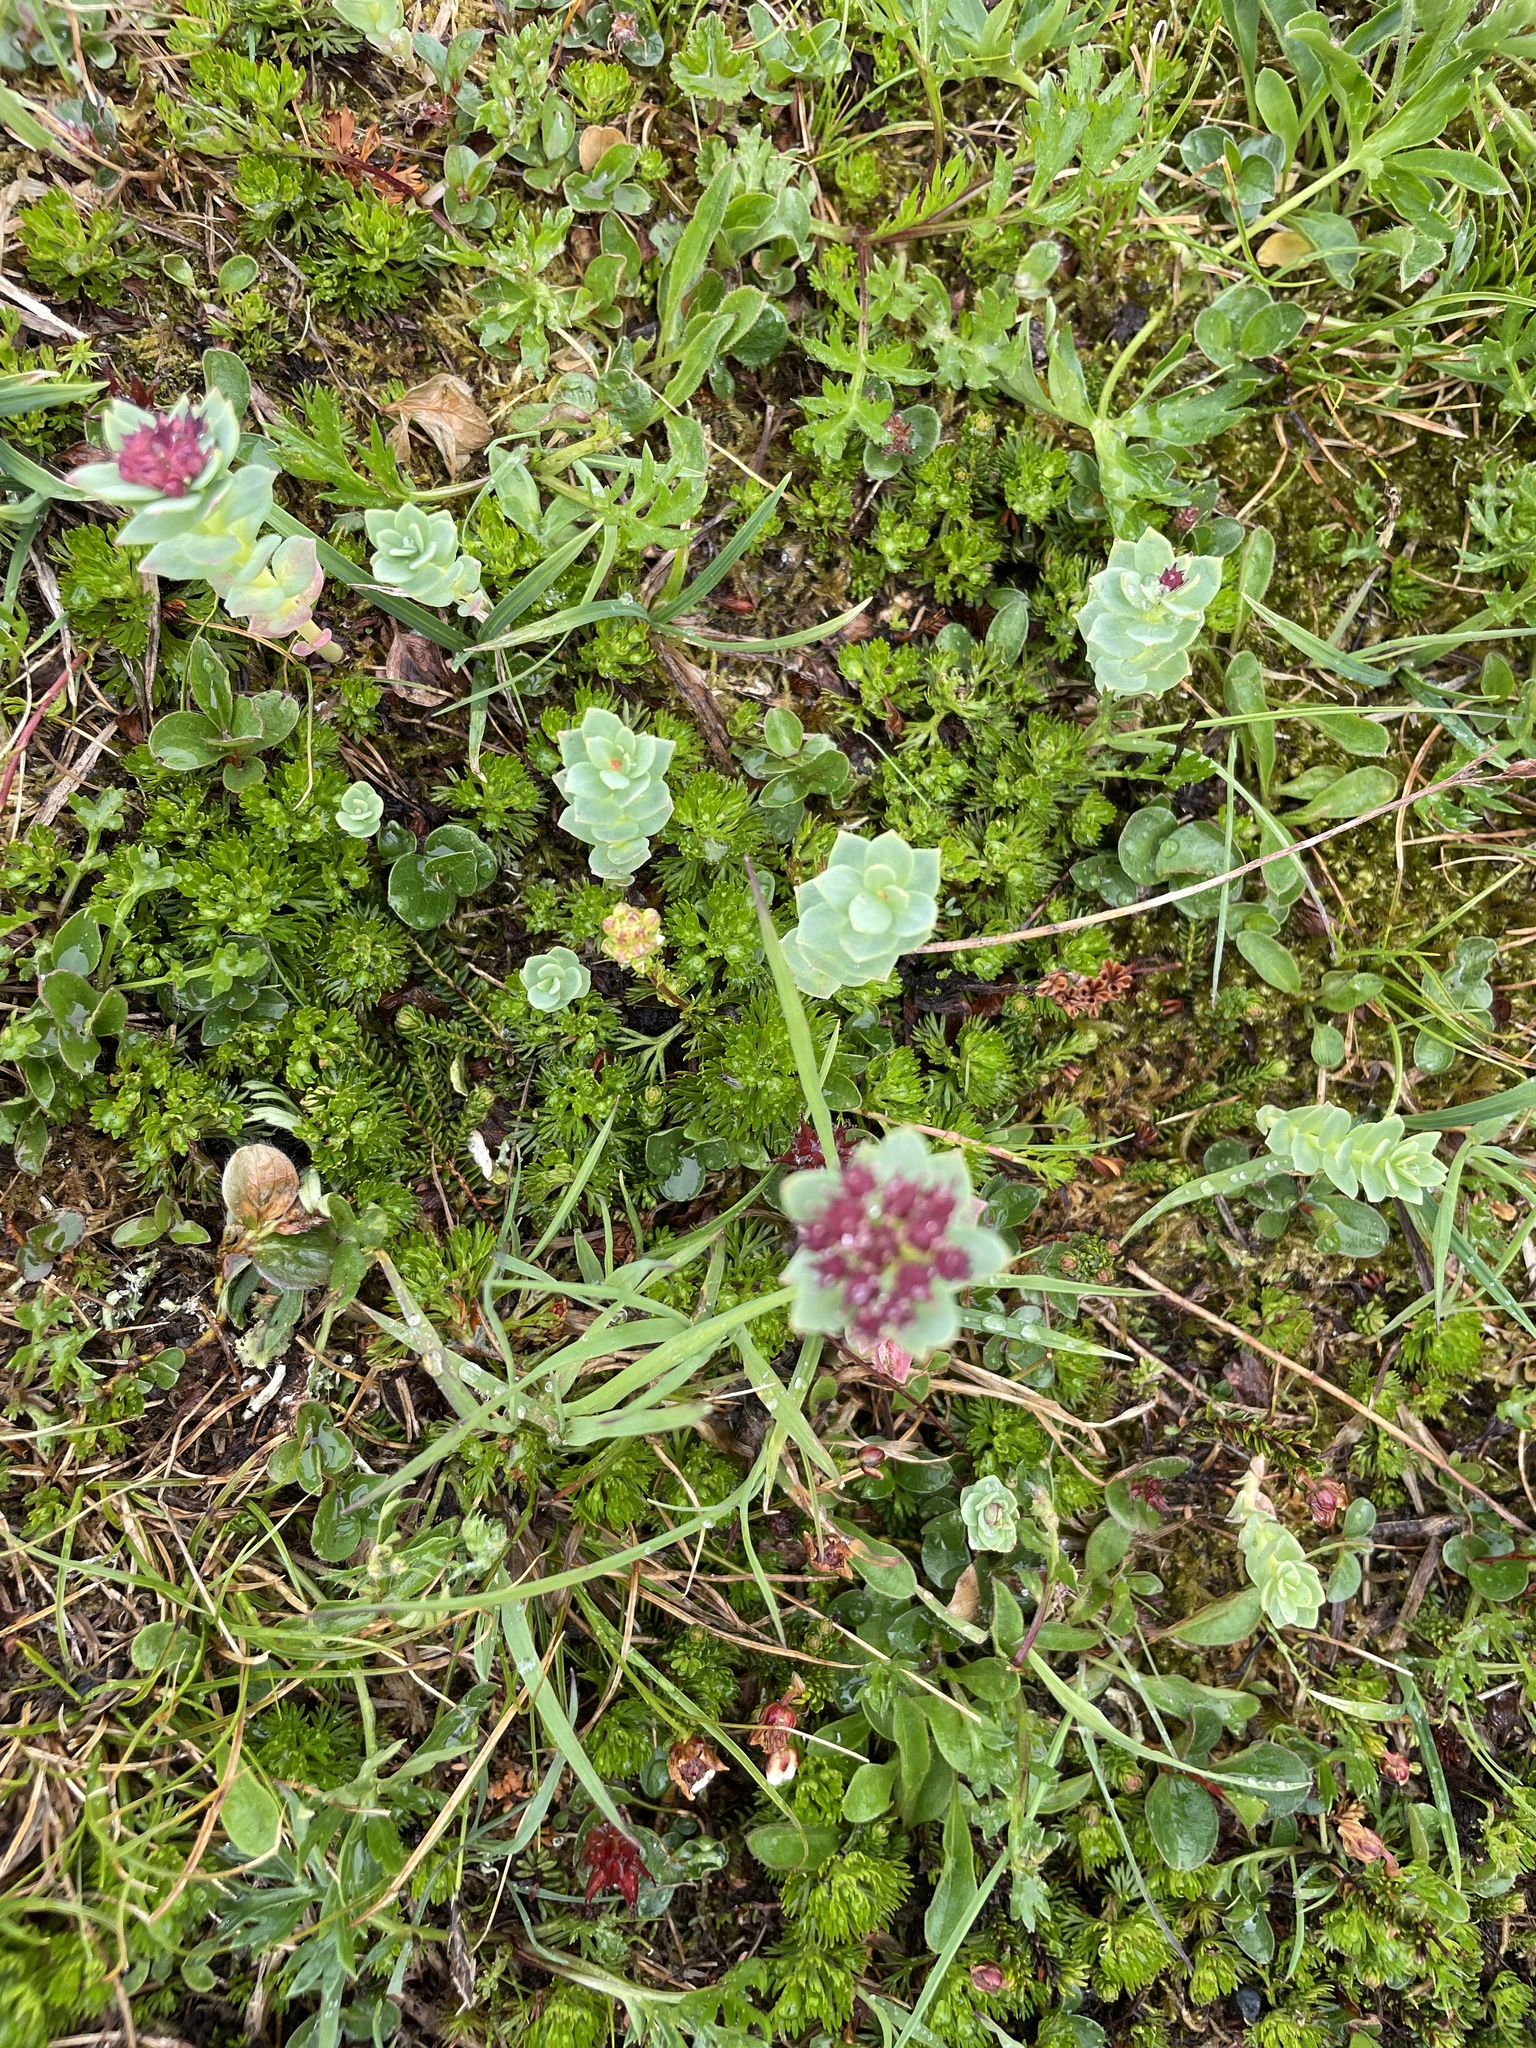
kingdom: Plantae
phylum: Tracheophyta
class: Magnoliopsida
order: Saxifragales
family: Crassulaceae
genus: Rhodiola
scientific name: Rhodiola integrifolia
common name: Western roseroot
